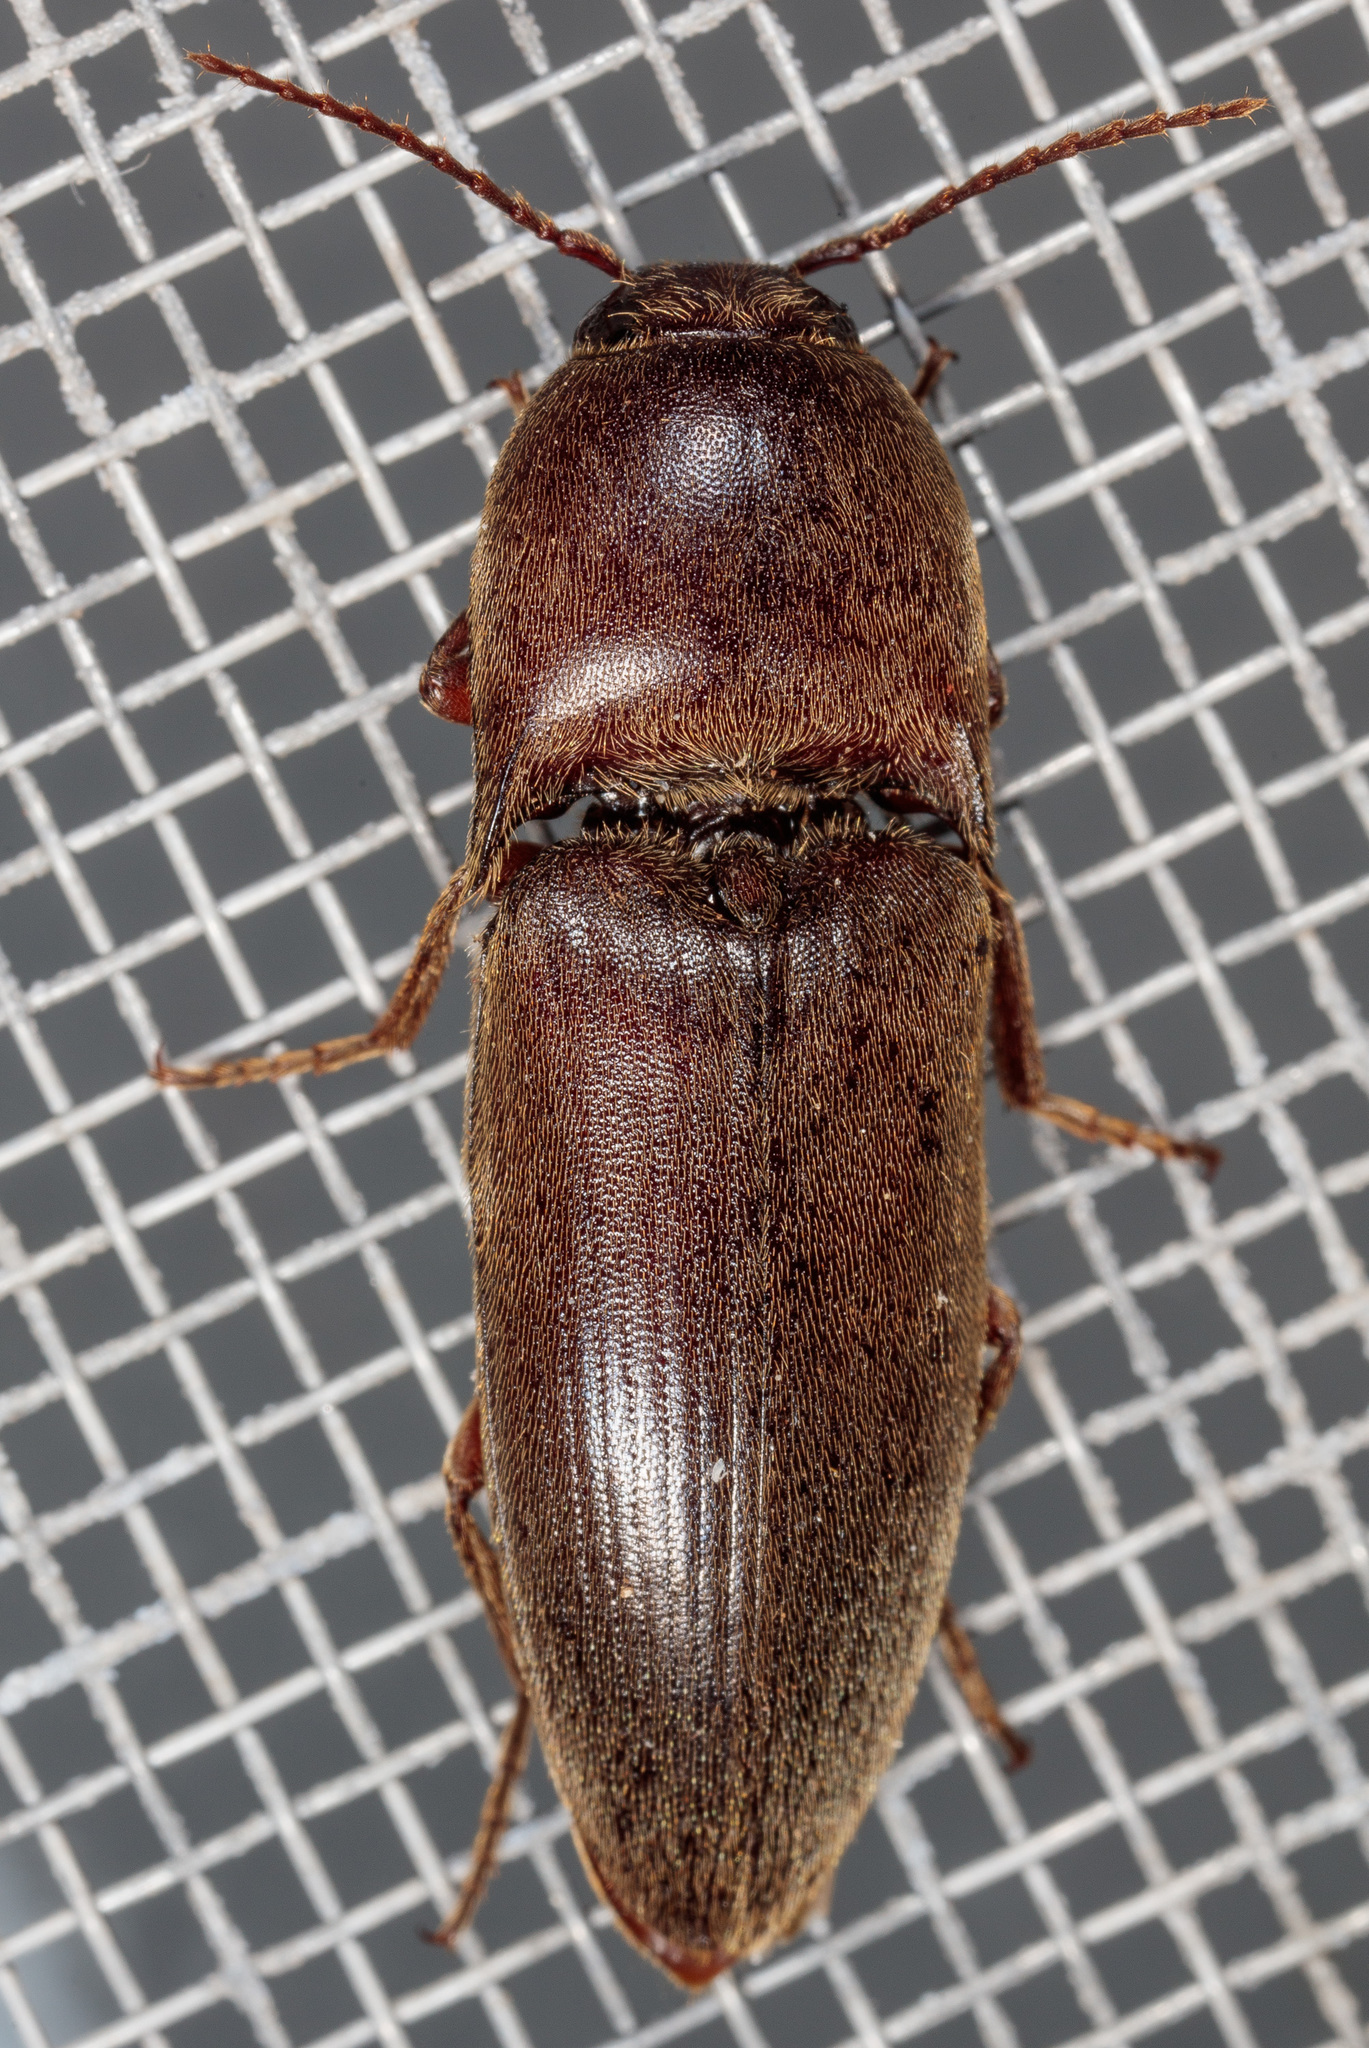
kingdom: Animalia
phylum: Arthropoda
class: Insecta
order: Coleoptera
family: Elateridae
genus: Diplostethus
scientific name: Diplostethus
